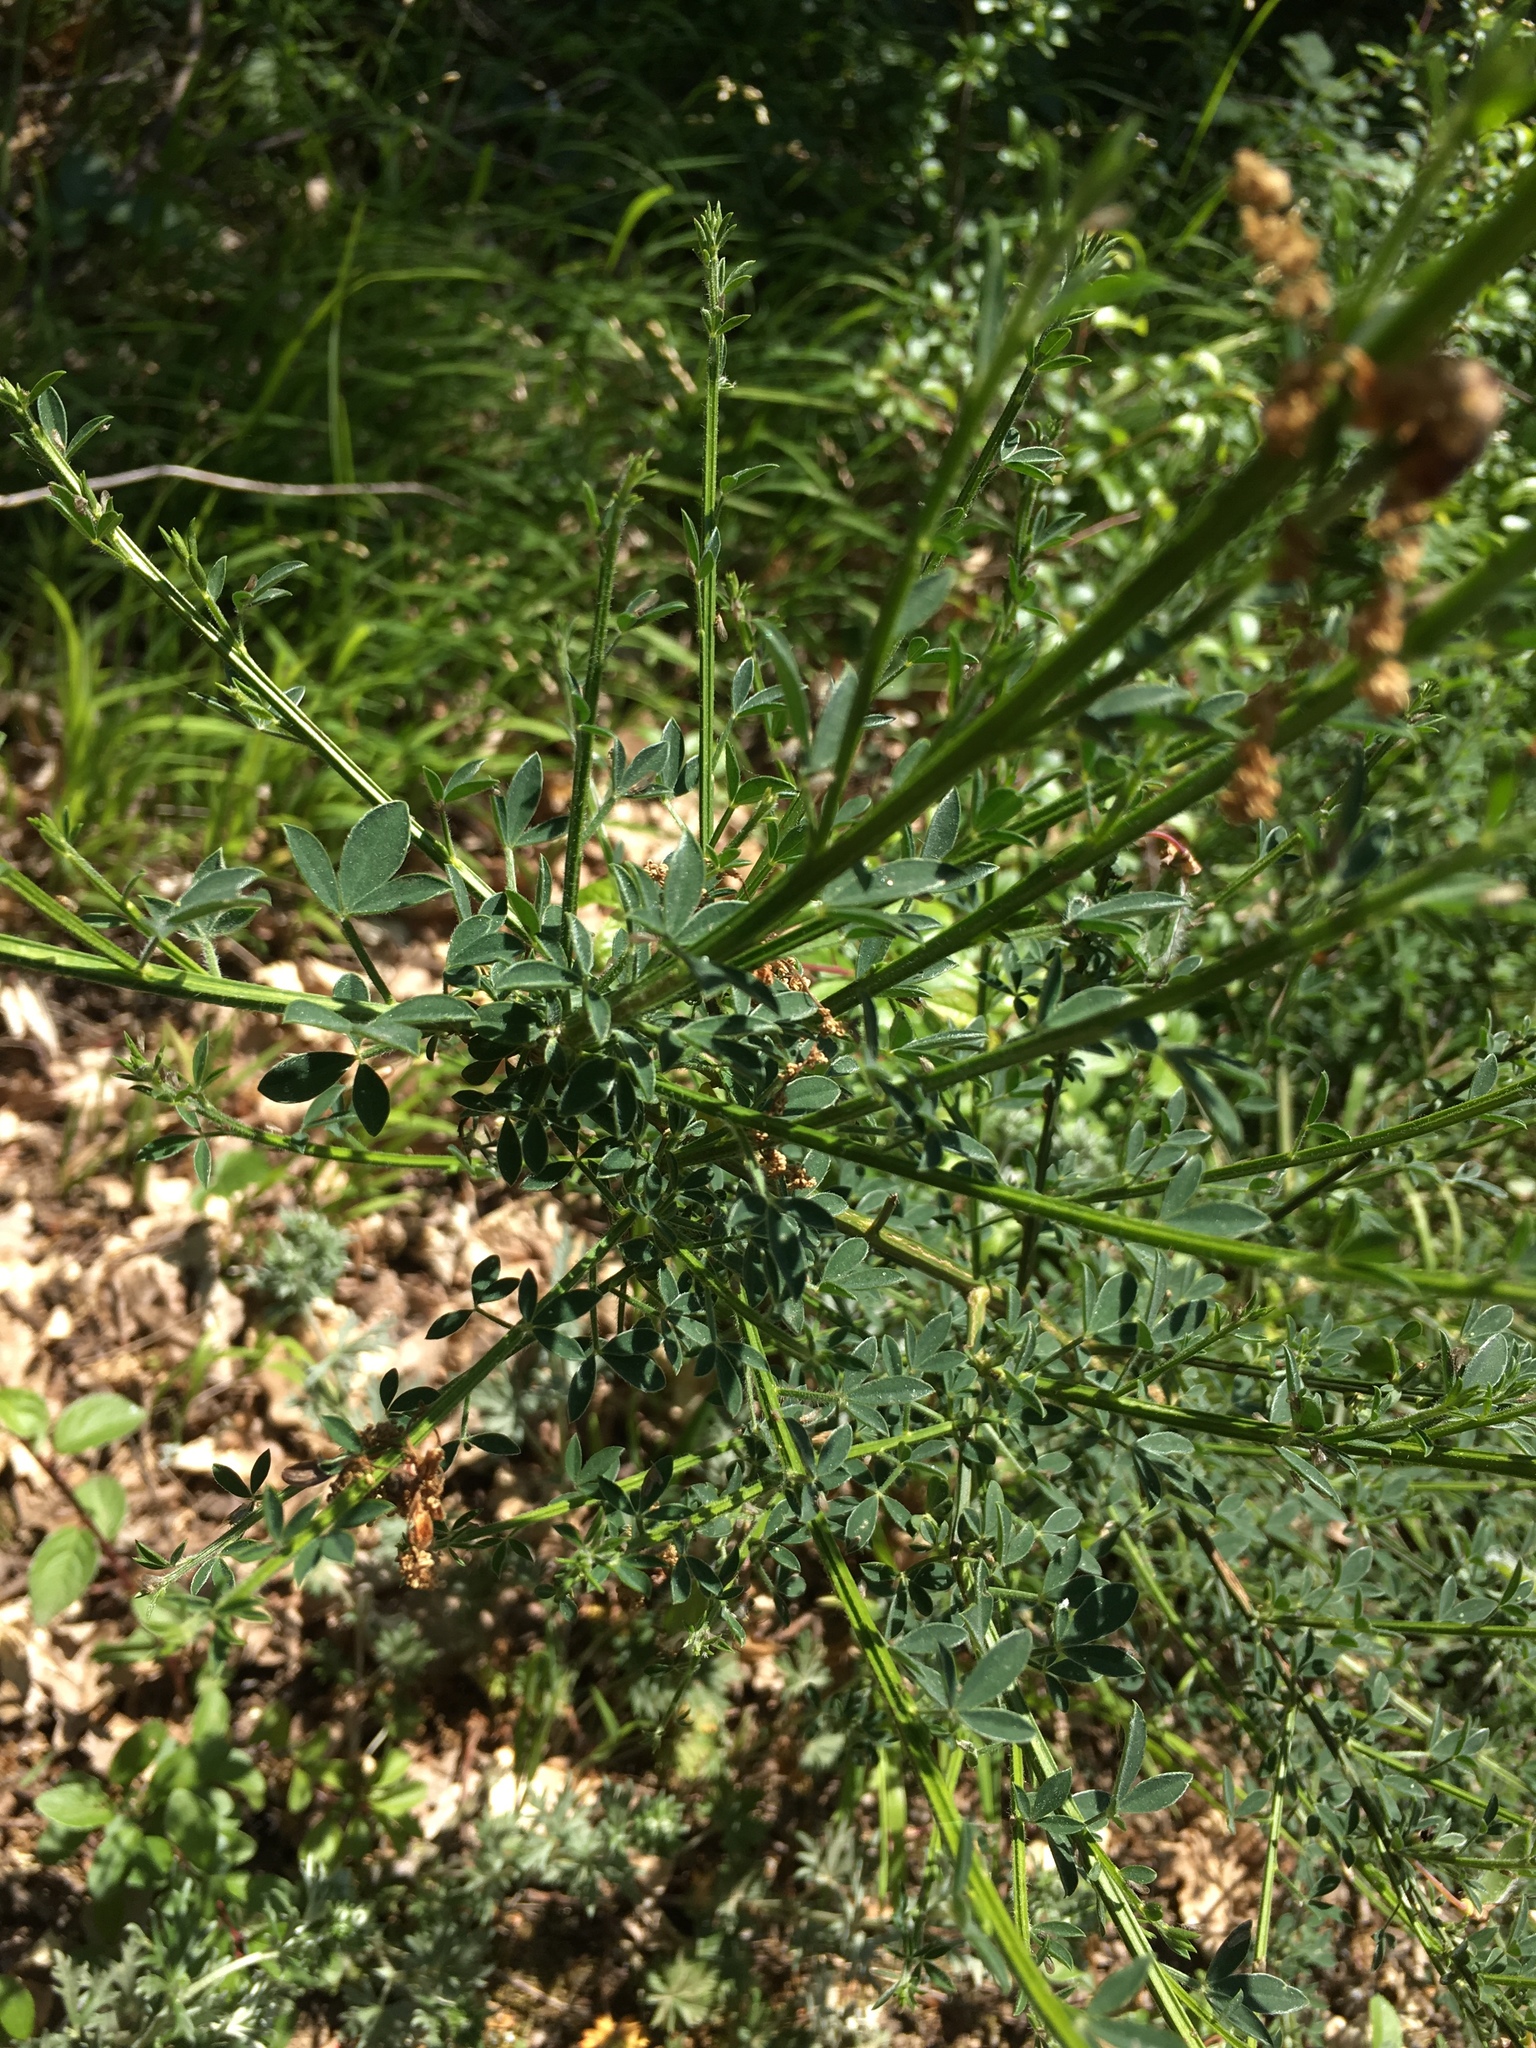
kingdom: Plantae
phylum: Tracheophyta
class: Magnoliopsida
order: Fabales
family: Fabaceae
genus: Cytisus
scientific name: Cytisus scoparius
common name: Scotch broom
